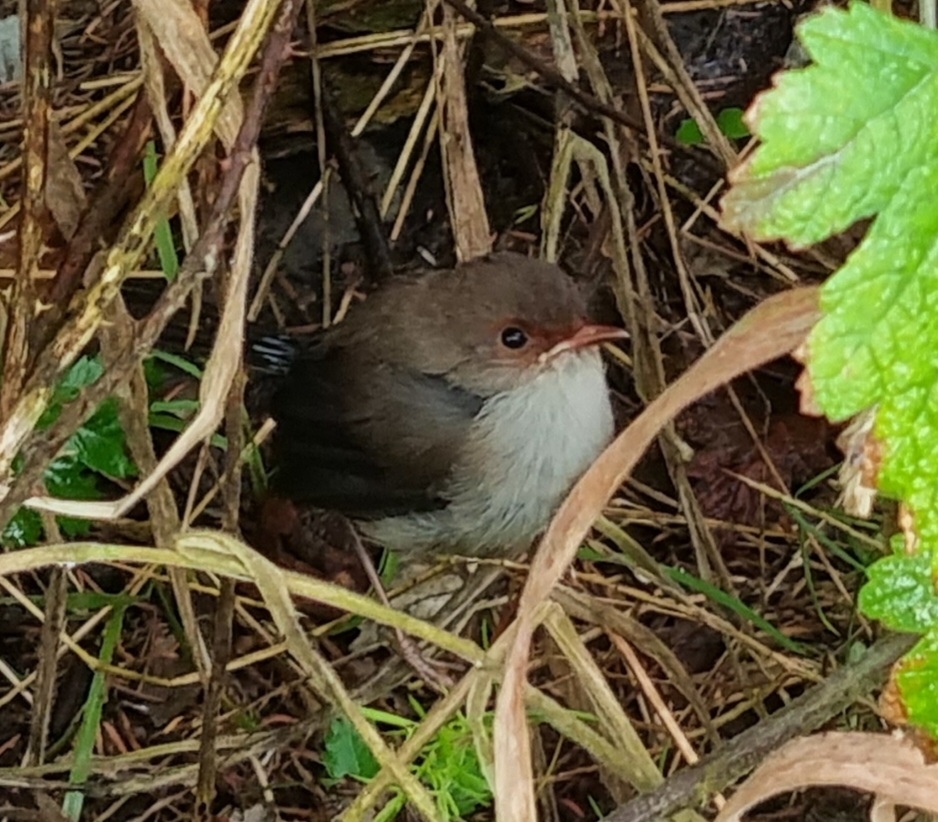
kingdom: Animalia
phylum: Chordata
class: Aves
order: Passeriformes
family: Maluridae
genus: Malurus
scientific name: Malurus cyaneus
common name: Superb fairywren
